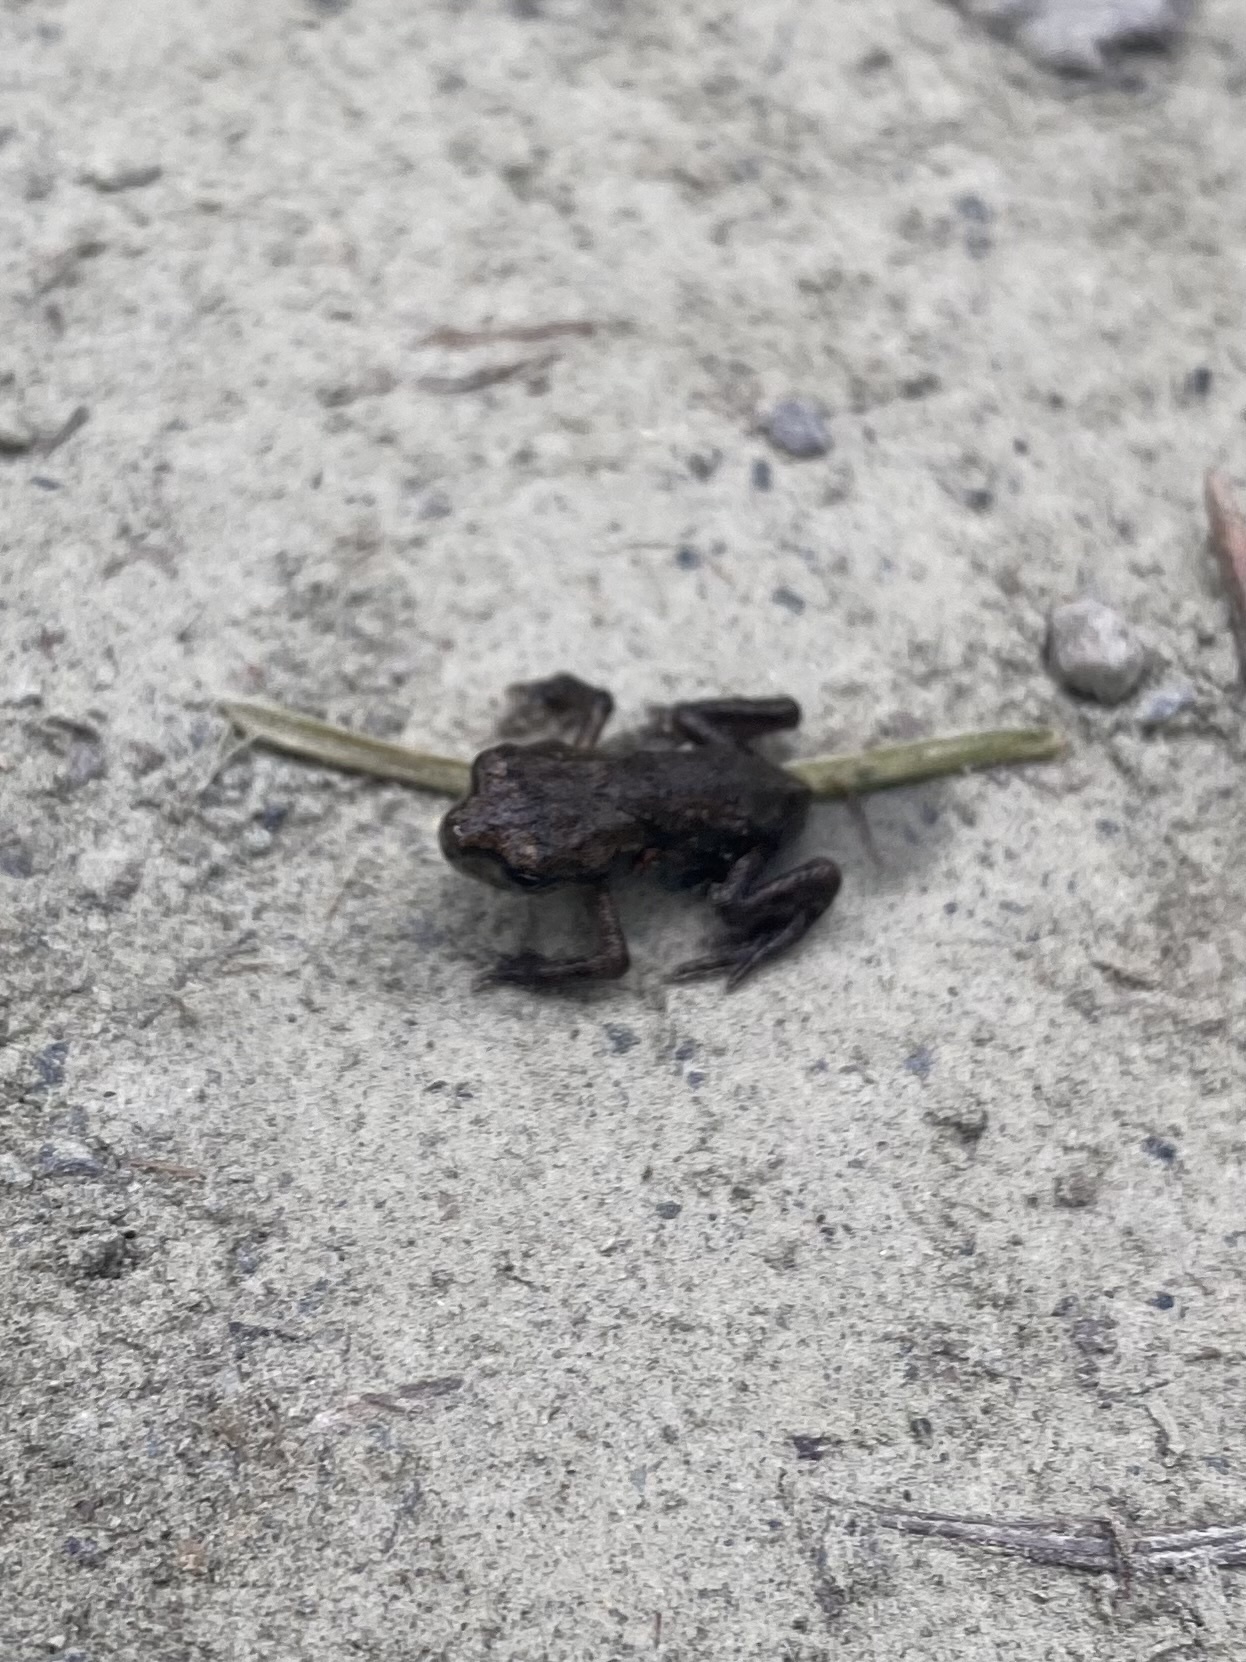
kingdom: Animalia
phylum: Chordata
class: Amphibia
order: Anura
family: Bufonidae
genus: Bufo
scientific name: Bufo gargarizans
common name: Asiatic toad
